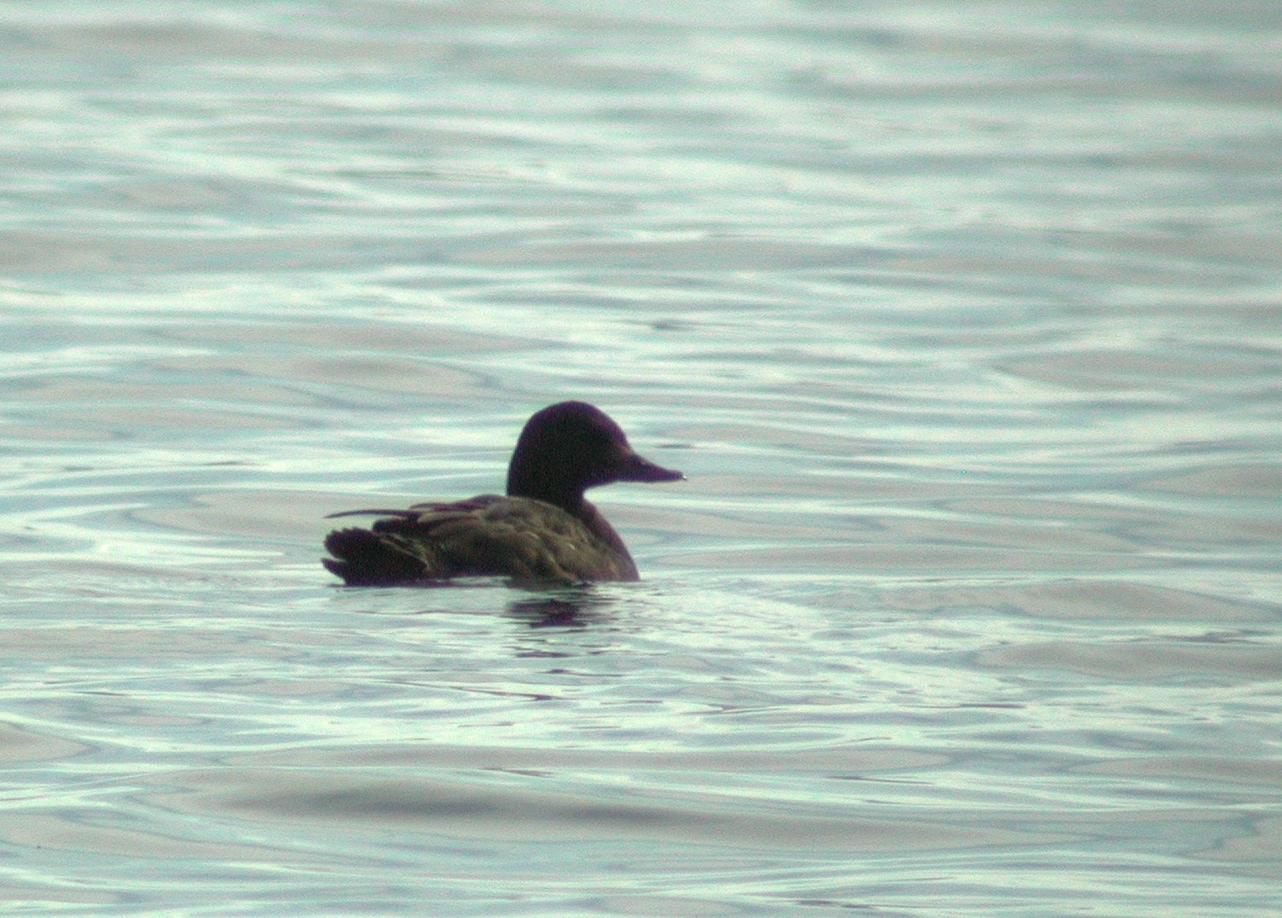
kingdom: Animalia
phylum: Chordata
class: Aves
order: Anseriformes
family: Anatidae
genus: Melanitta
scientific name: Melanitta fusca
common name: Velvet scoter
